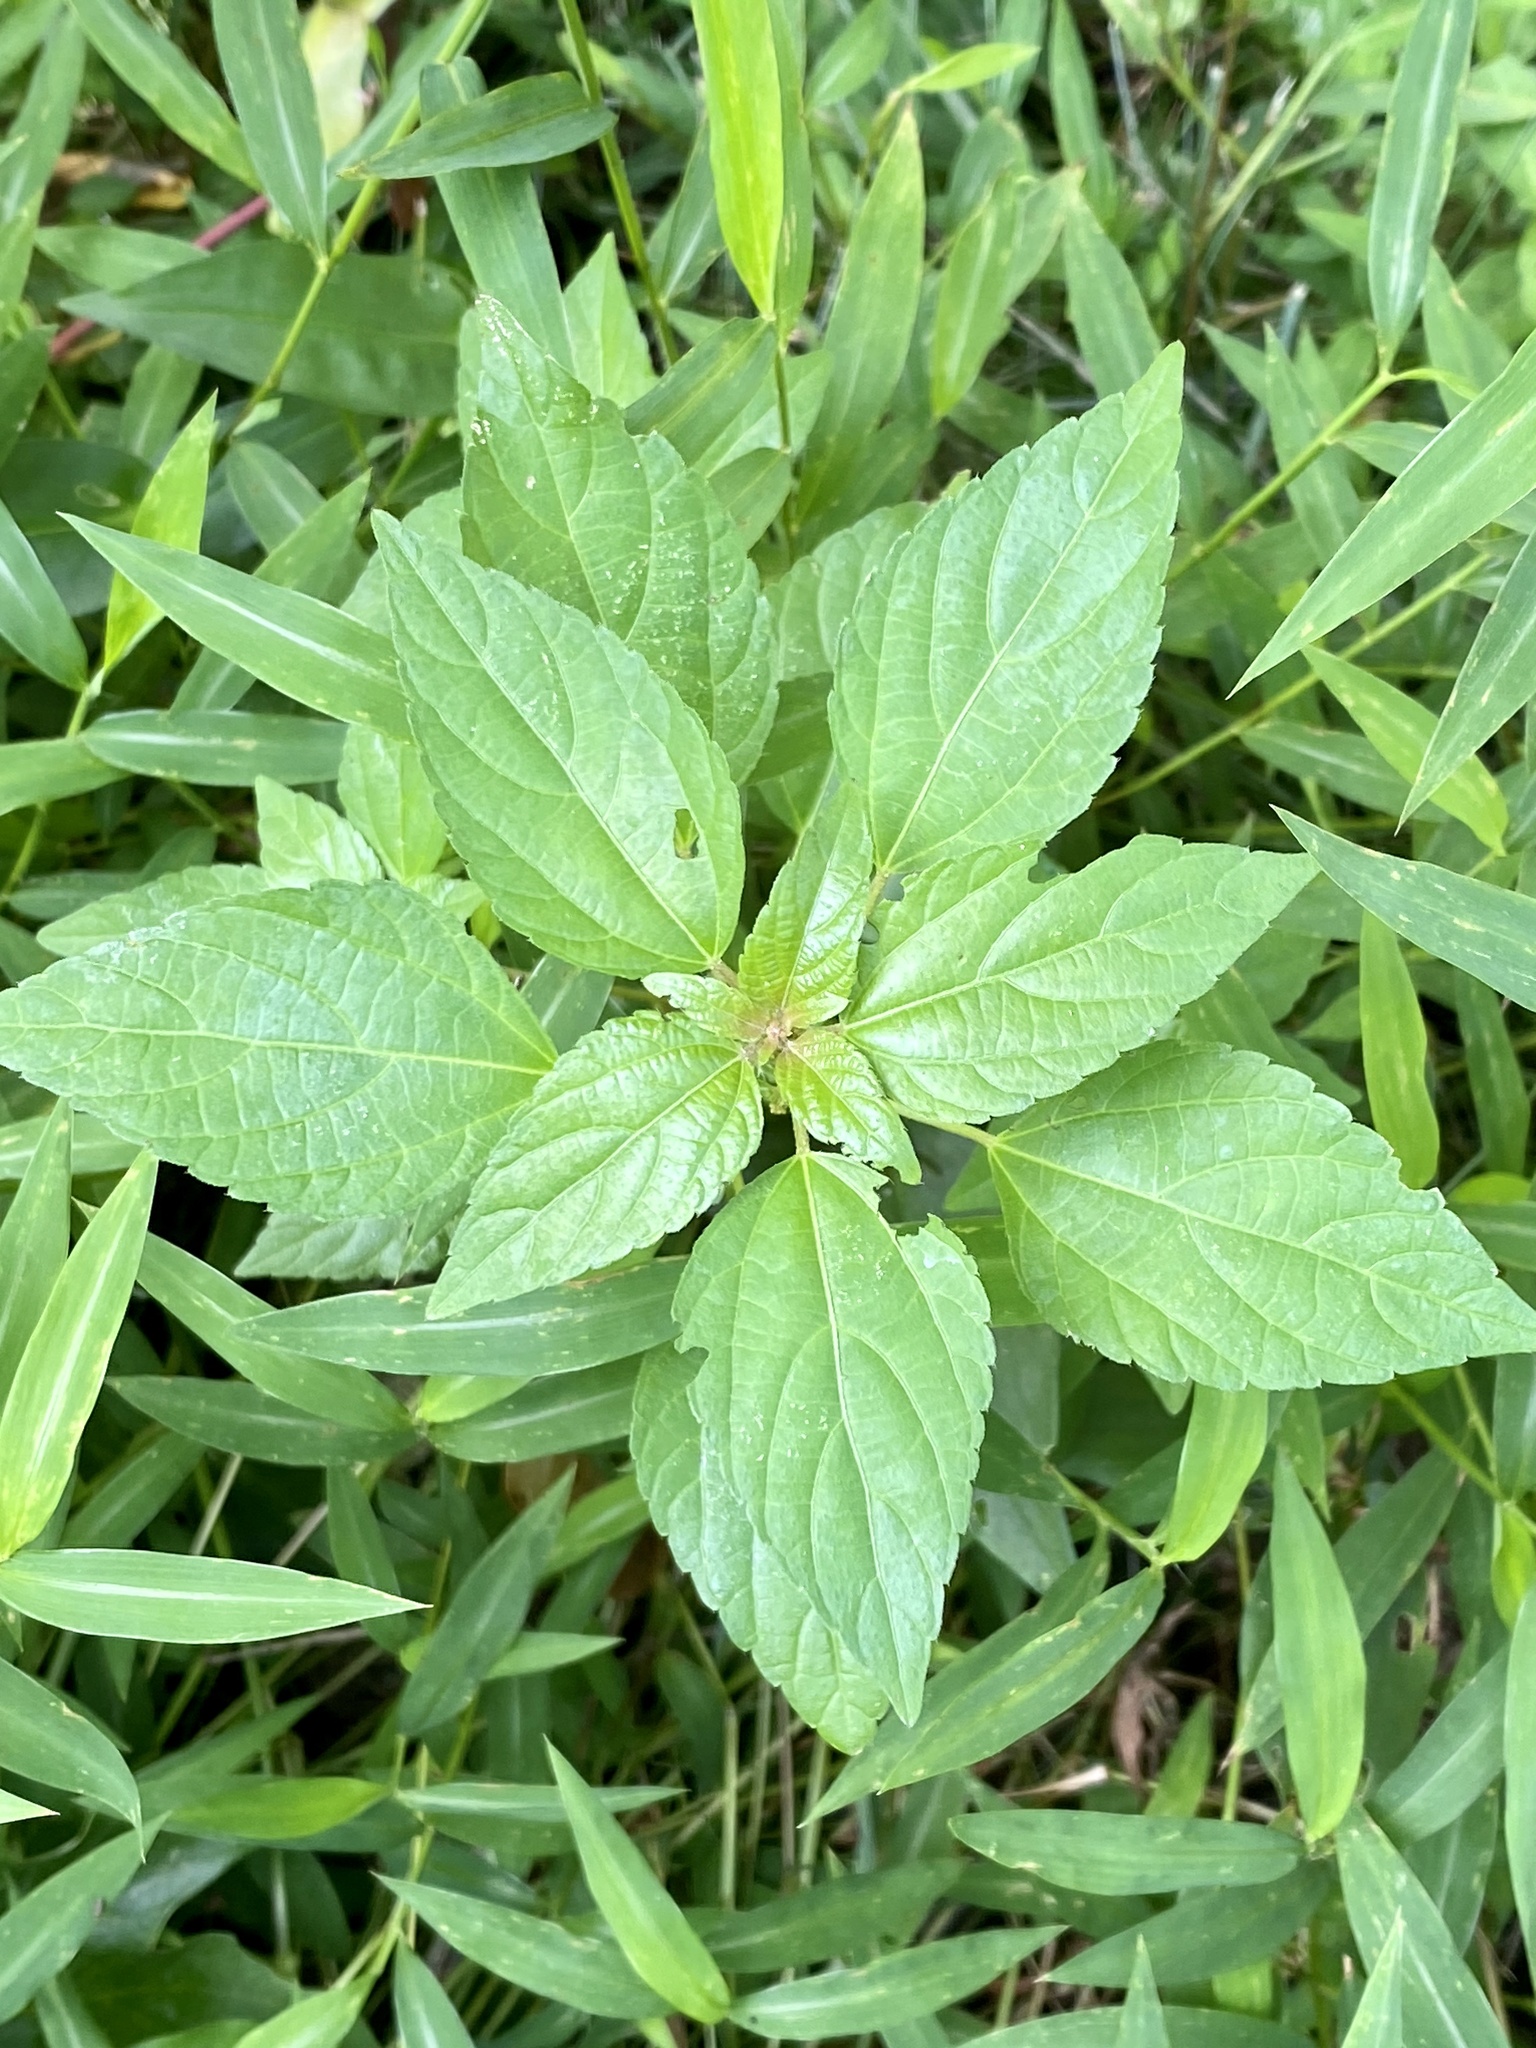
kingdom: Plantae
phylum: Tracheophyta
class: Magnoliopsida
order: Malpighiales
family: Euphorbiaceae
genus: Acalypha
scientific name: Acalypha rhomboidea
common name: Rhombic copperleaf
